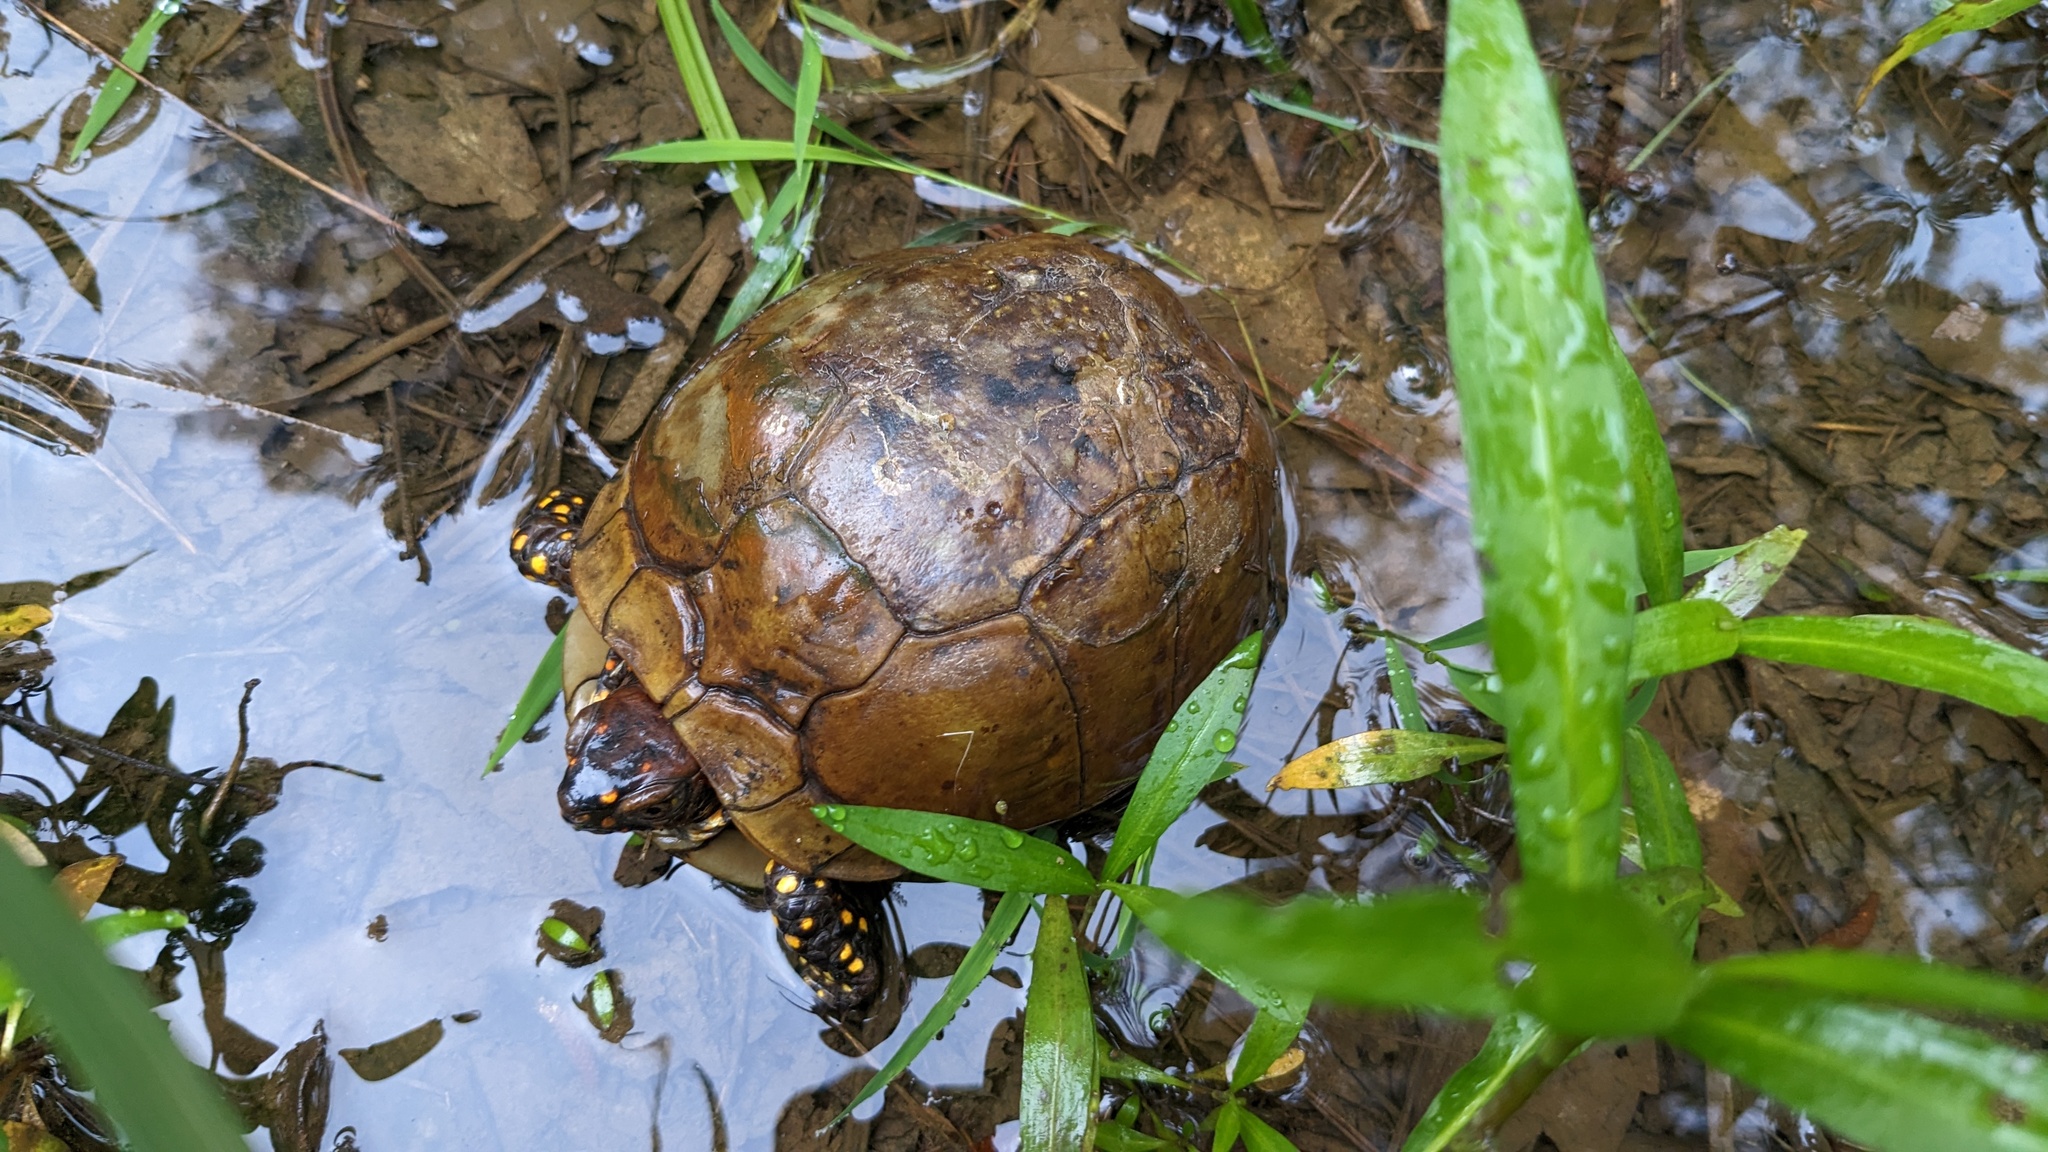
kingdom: Animalia
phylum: Chordata
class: Testudines
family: Emydidae
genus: Terrapene
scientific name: Terrapene carolina
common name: Common box turtle
